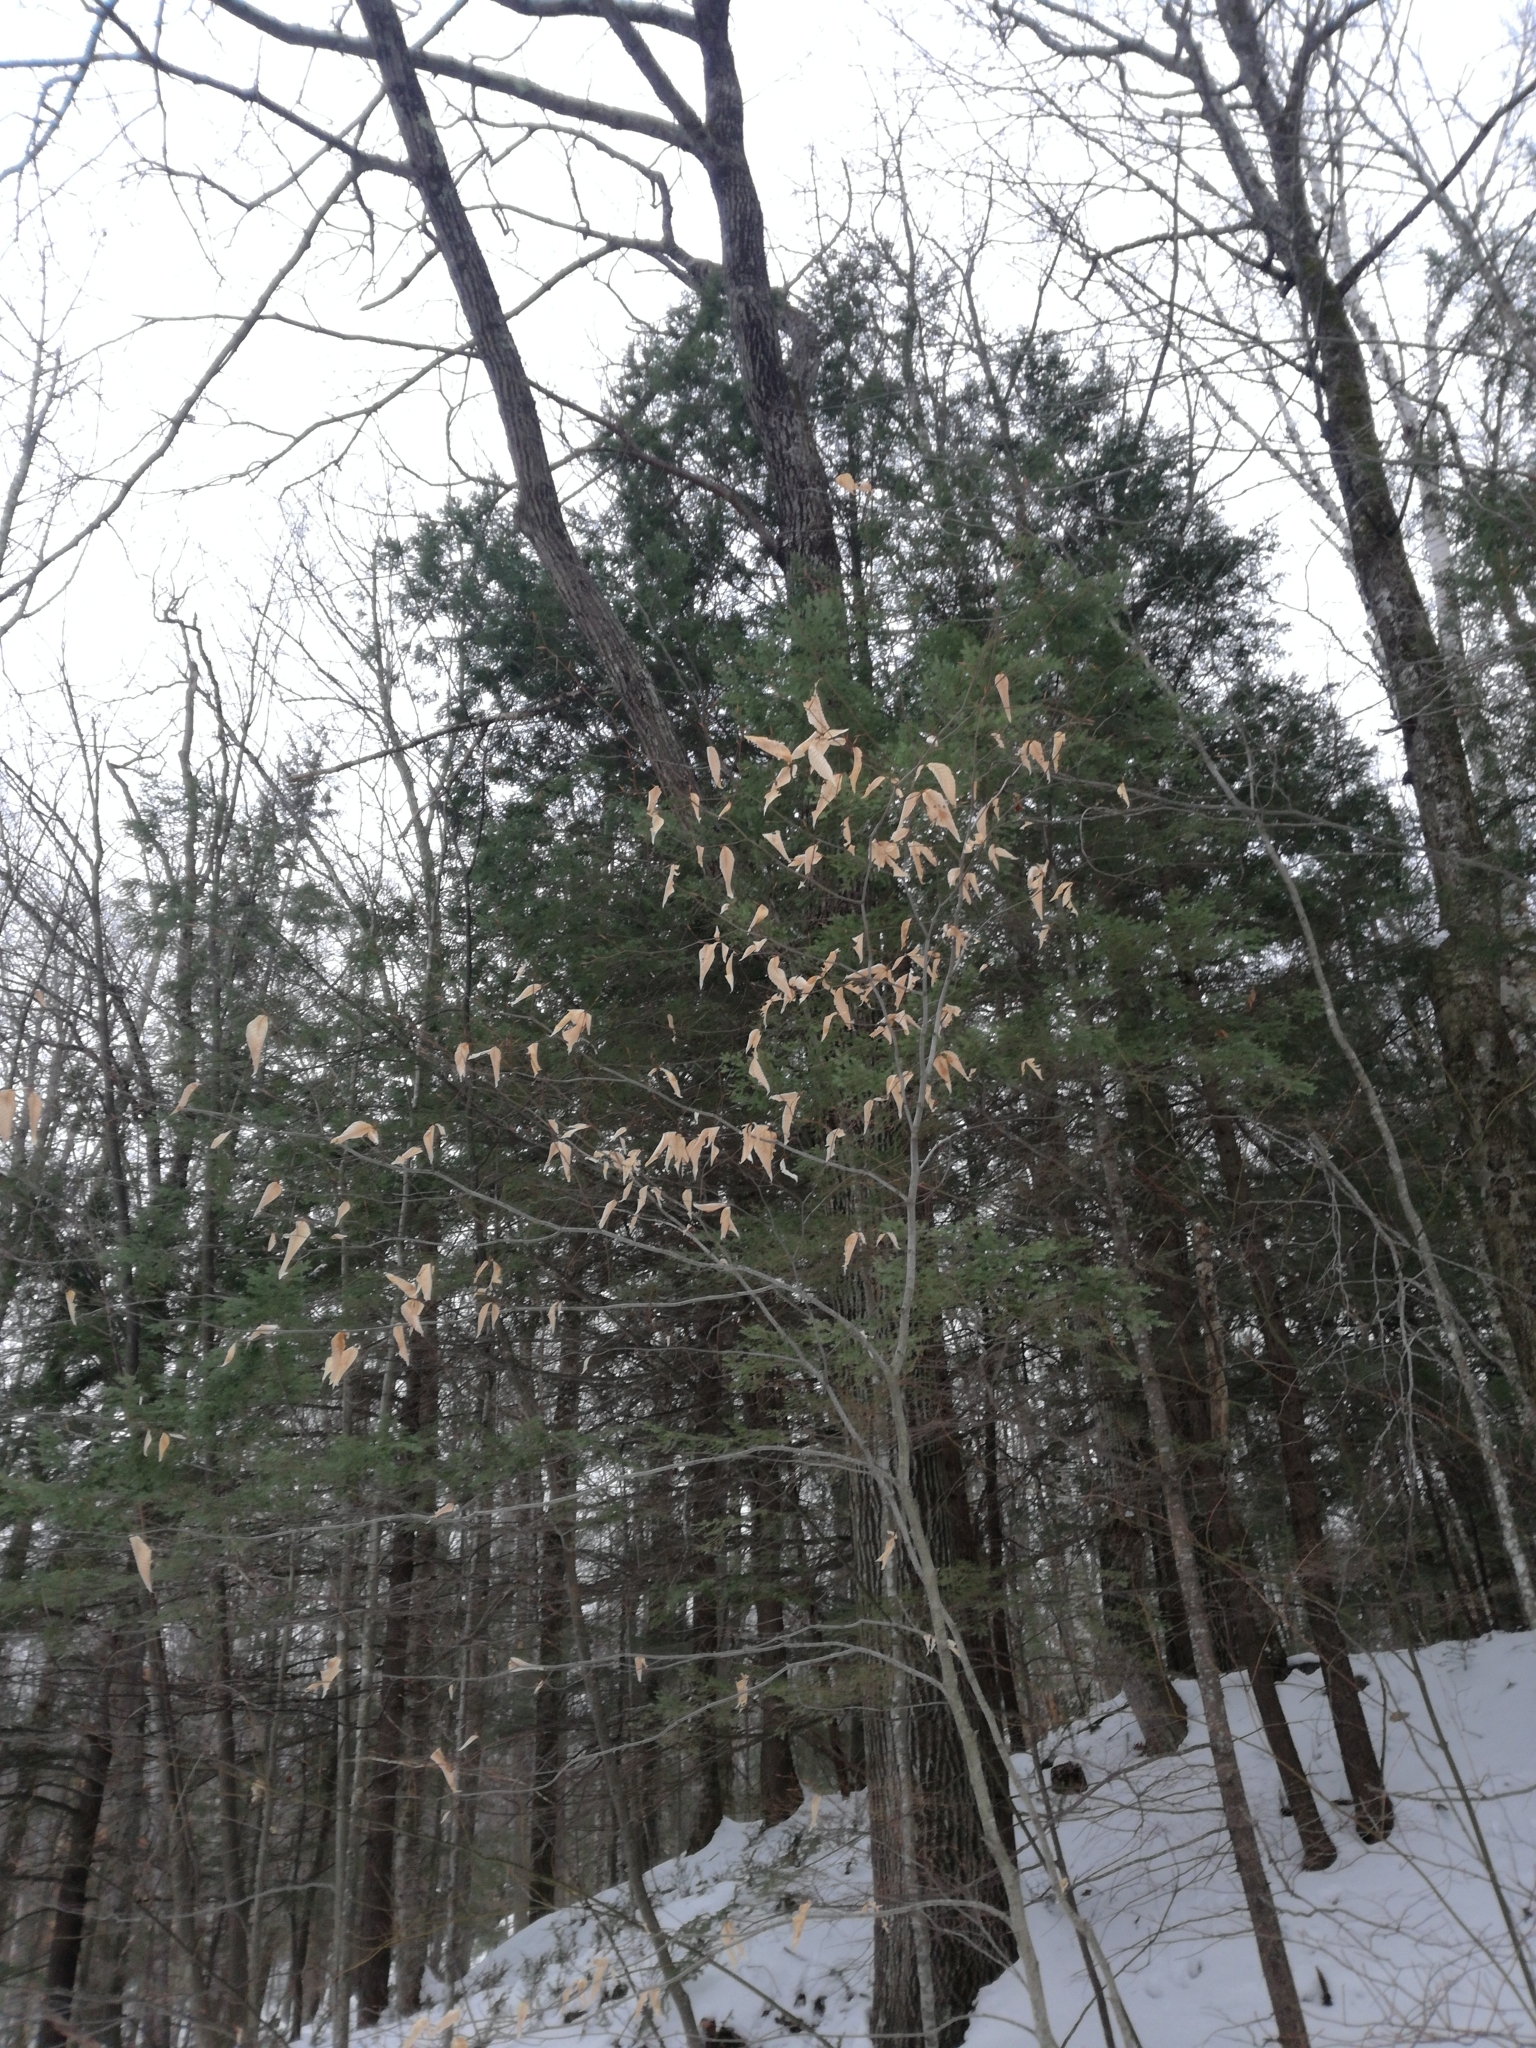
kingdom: Plantae
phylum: Tracheophyta
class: Magnoliopsida
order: Fagales
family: Fagaceae
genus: Fagus
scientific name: Fagus grandifolia
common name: American beech
